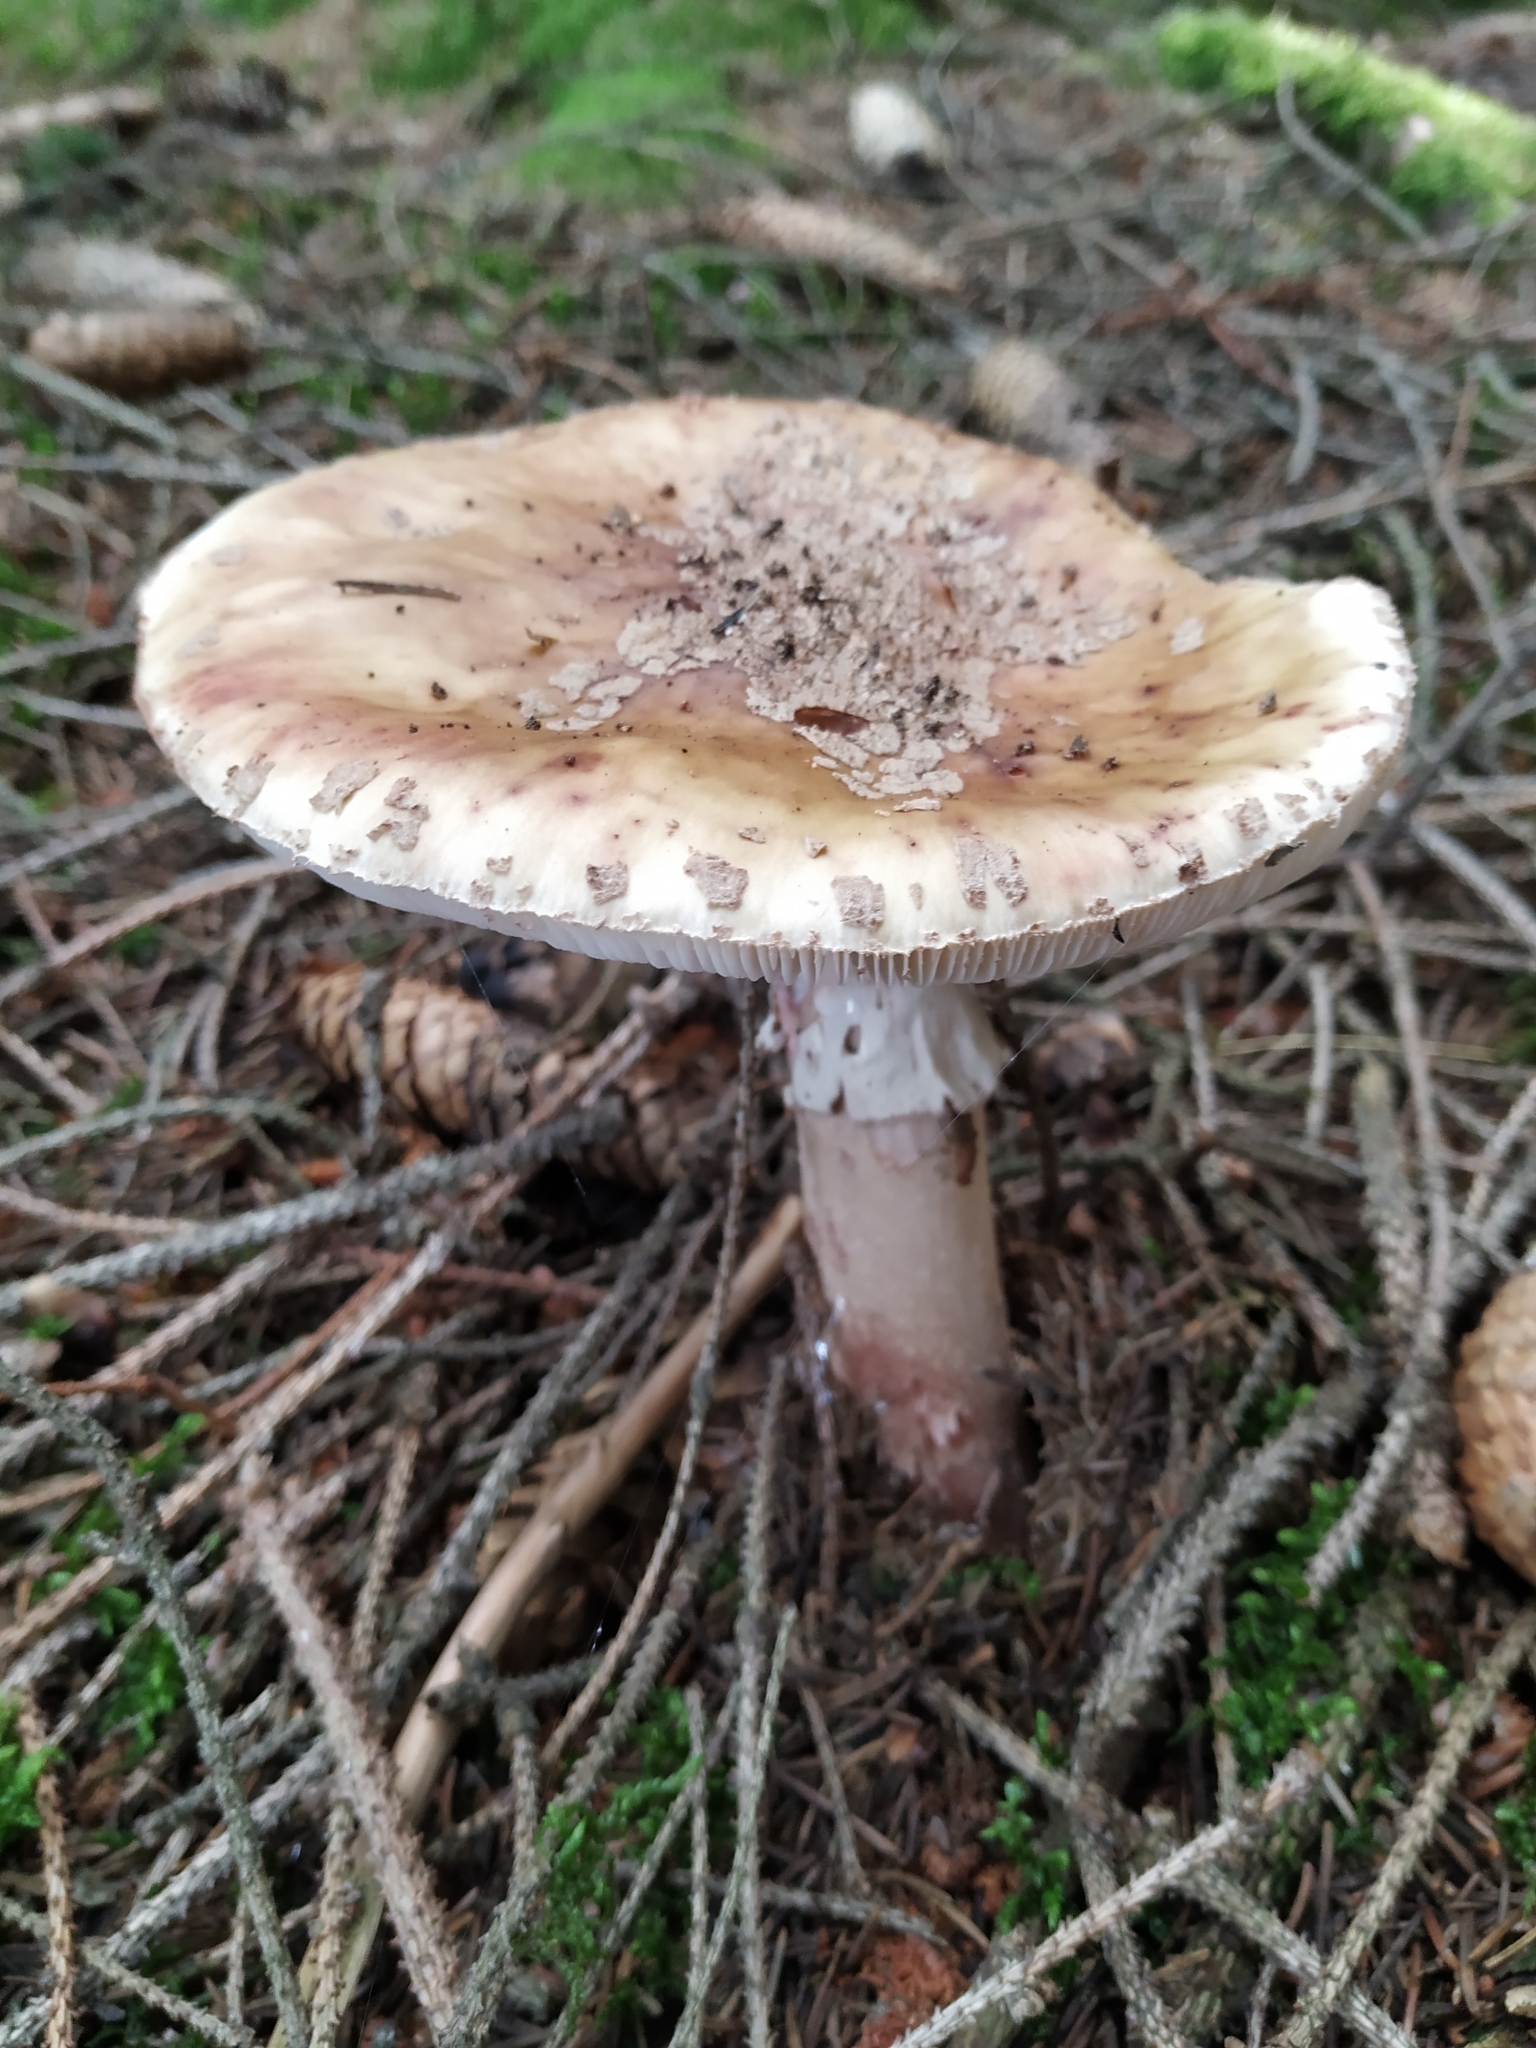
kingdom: Fungi
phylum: Basidiomycota
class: Agaricomycetes
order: Agaricales
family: Amanitaceae
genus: Amanita
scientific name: Amanita rubescens
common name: Blusher
